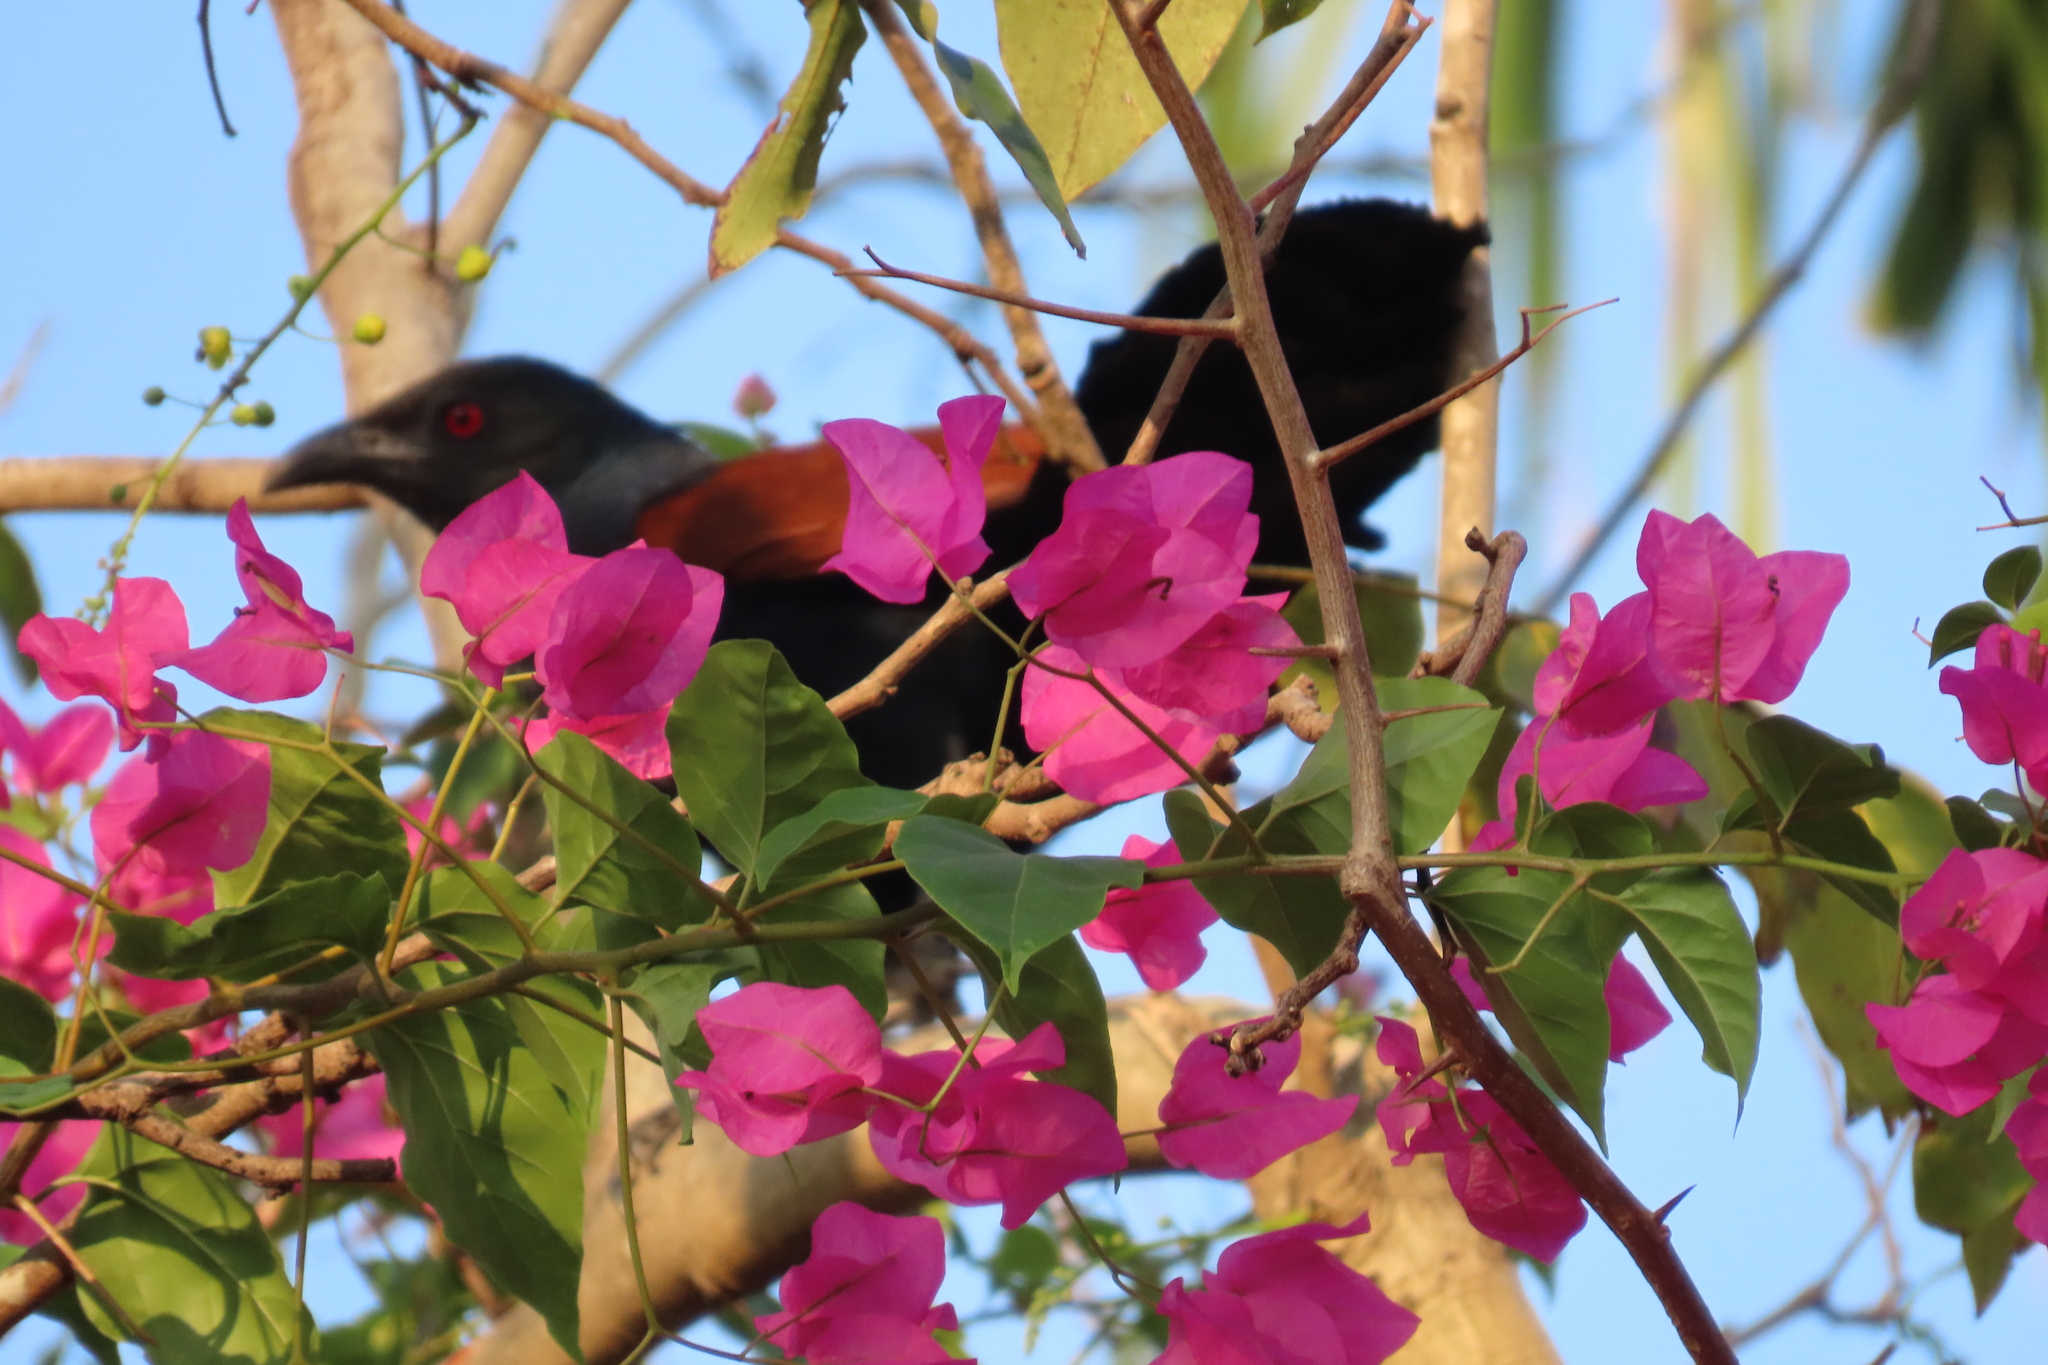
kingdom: Animalia
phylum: Chordata
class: Aves
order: Cuculiformes
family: Cuculidae
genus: Centropus
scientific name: Centropus sinensis
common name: Greater coucal
